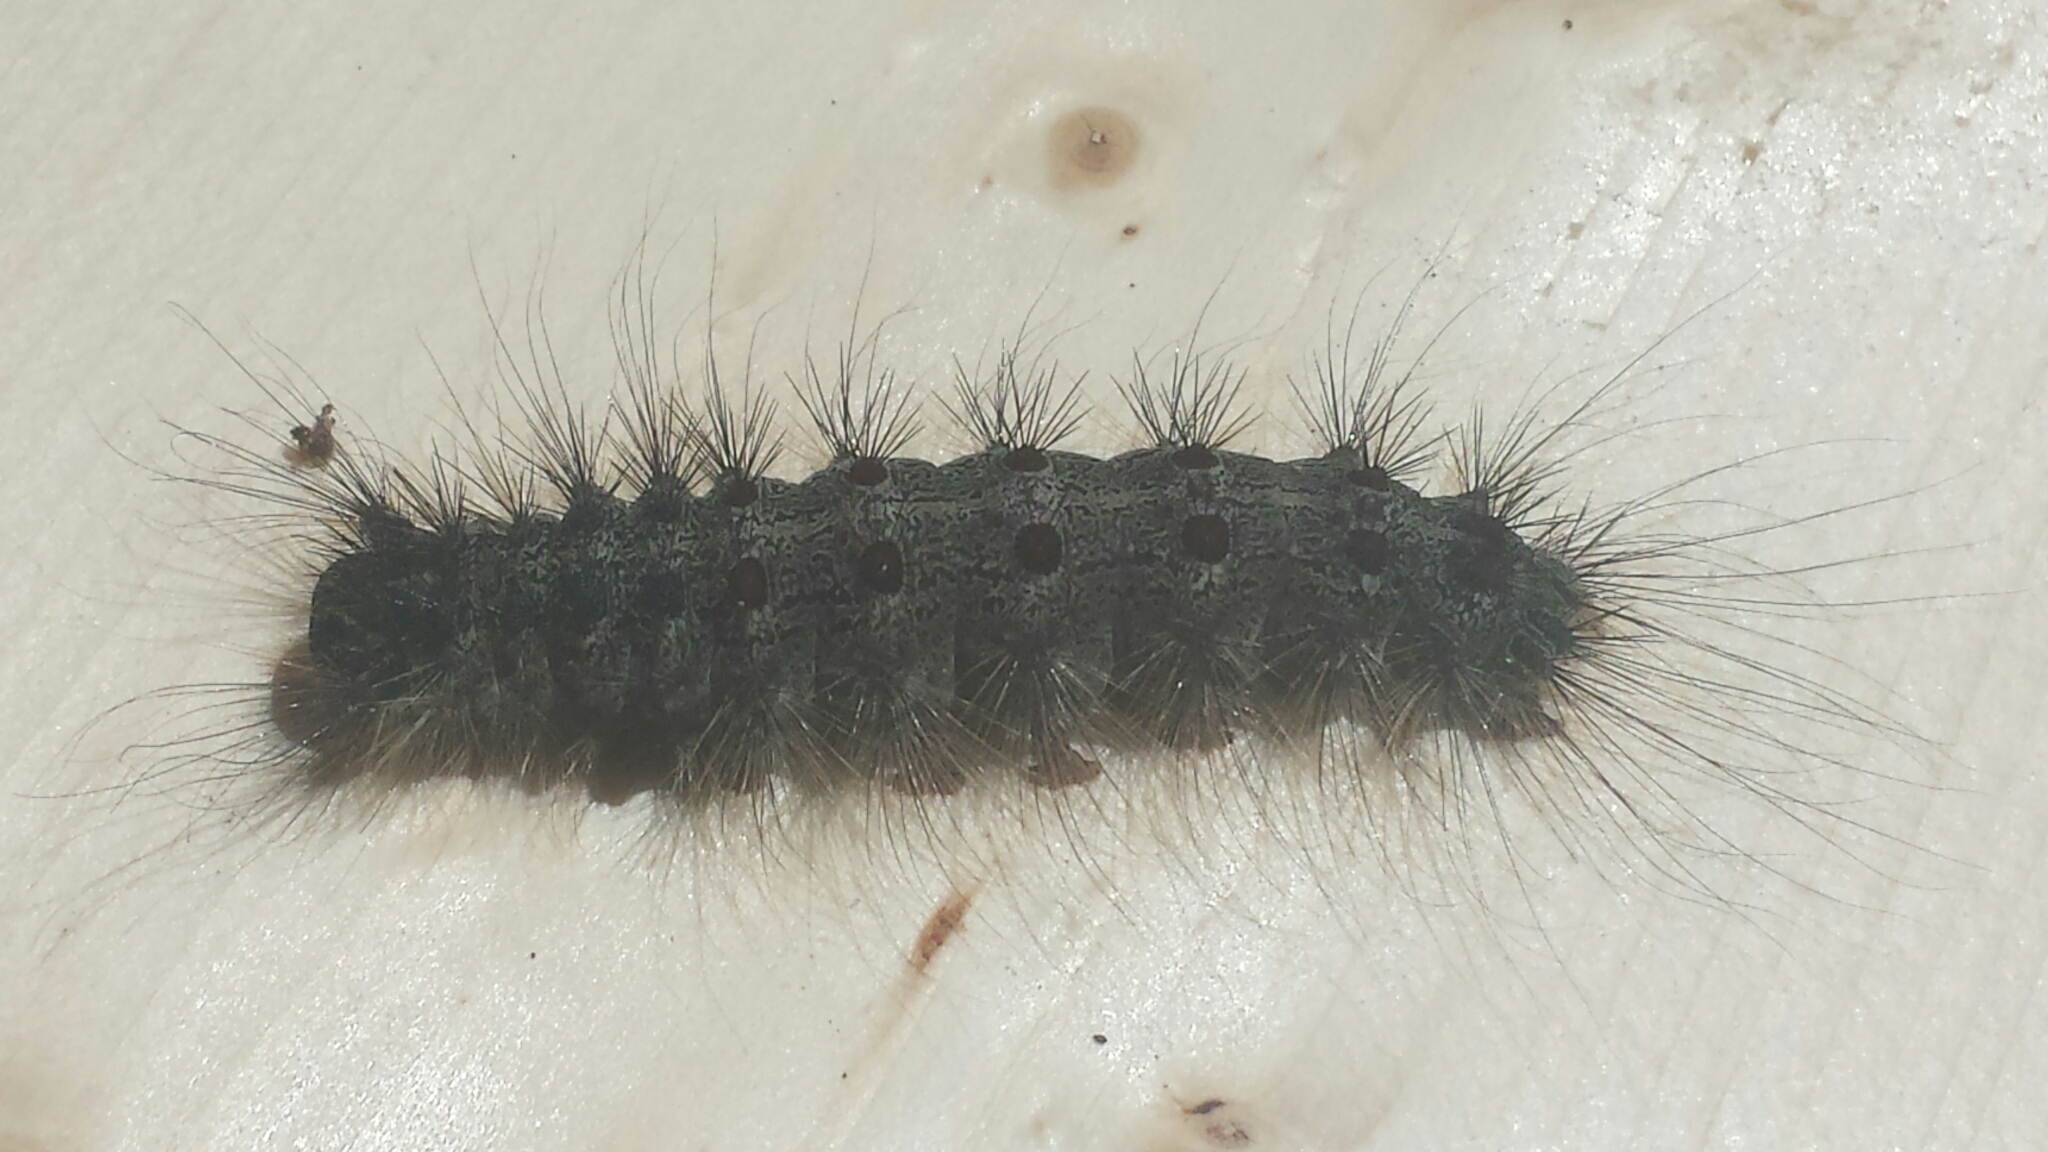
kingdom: Animalia
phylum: Arthropoda
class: Insecta
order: Lepidoptera
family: Erebidae
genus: Lymantria
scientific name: Lymantria dispar
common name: Gypsy moth
